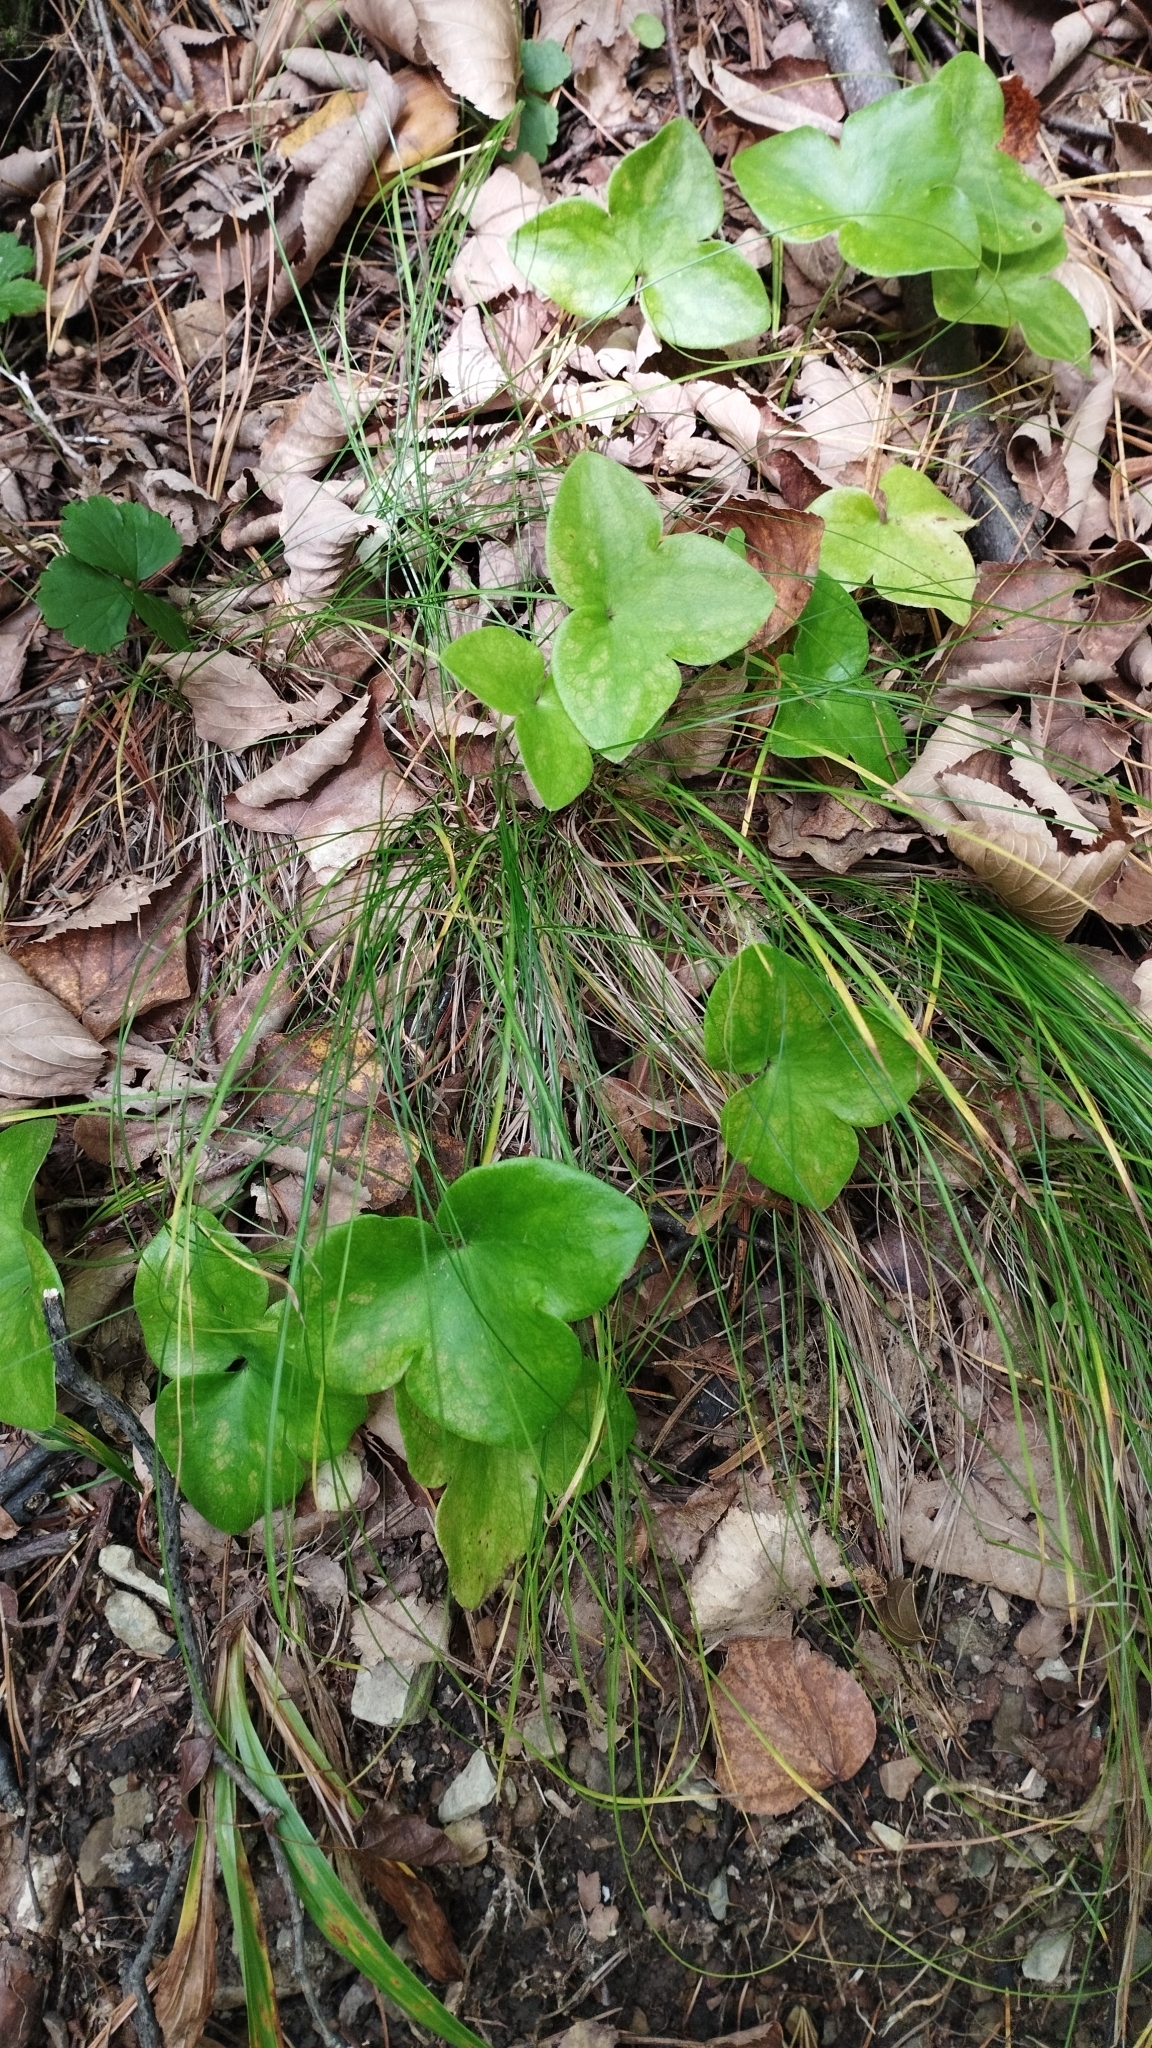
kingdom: Plantae
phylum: Tracheophyta
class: Magnoliopsida
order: Ranunculales
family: Ranunculaceae
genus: Hepatica
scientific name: Hepatica asiatica
